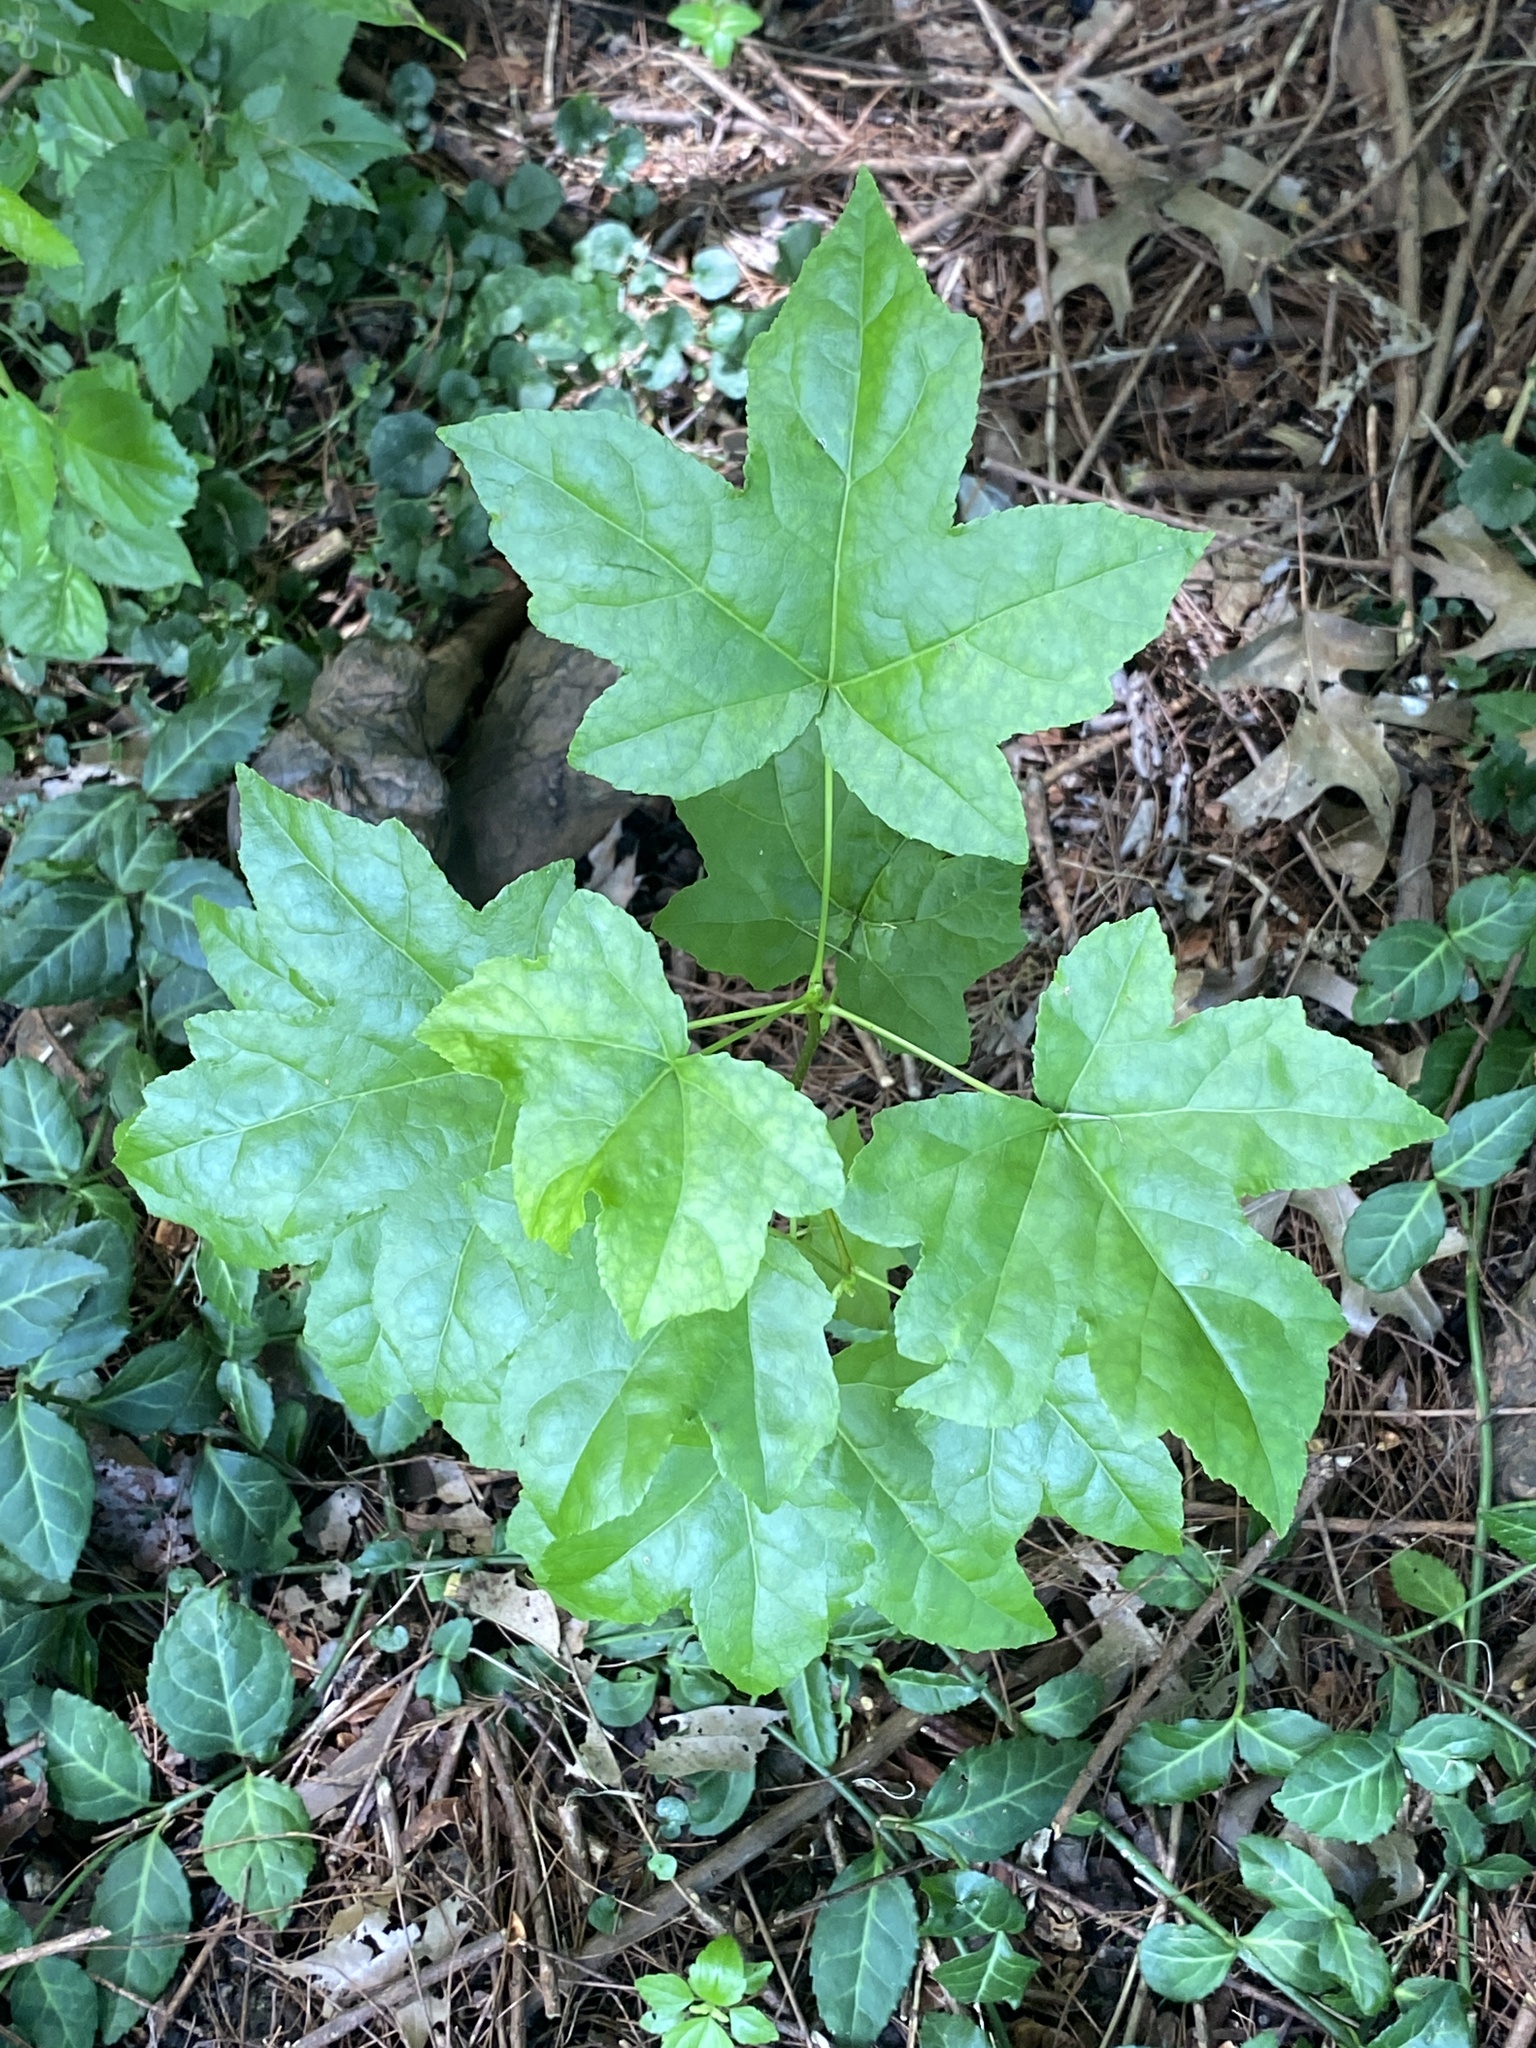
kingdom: Plantae
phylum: Tracheophyta
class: Magnoliopsida
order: Saxifragales
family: Altingiaceae
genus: Liquidambar
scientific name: Liquidambar styraciflua
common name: Sweet gum
